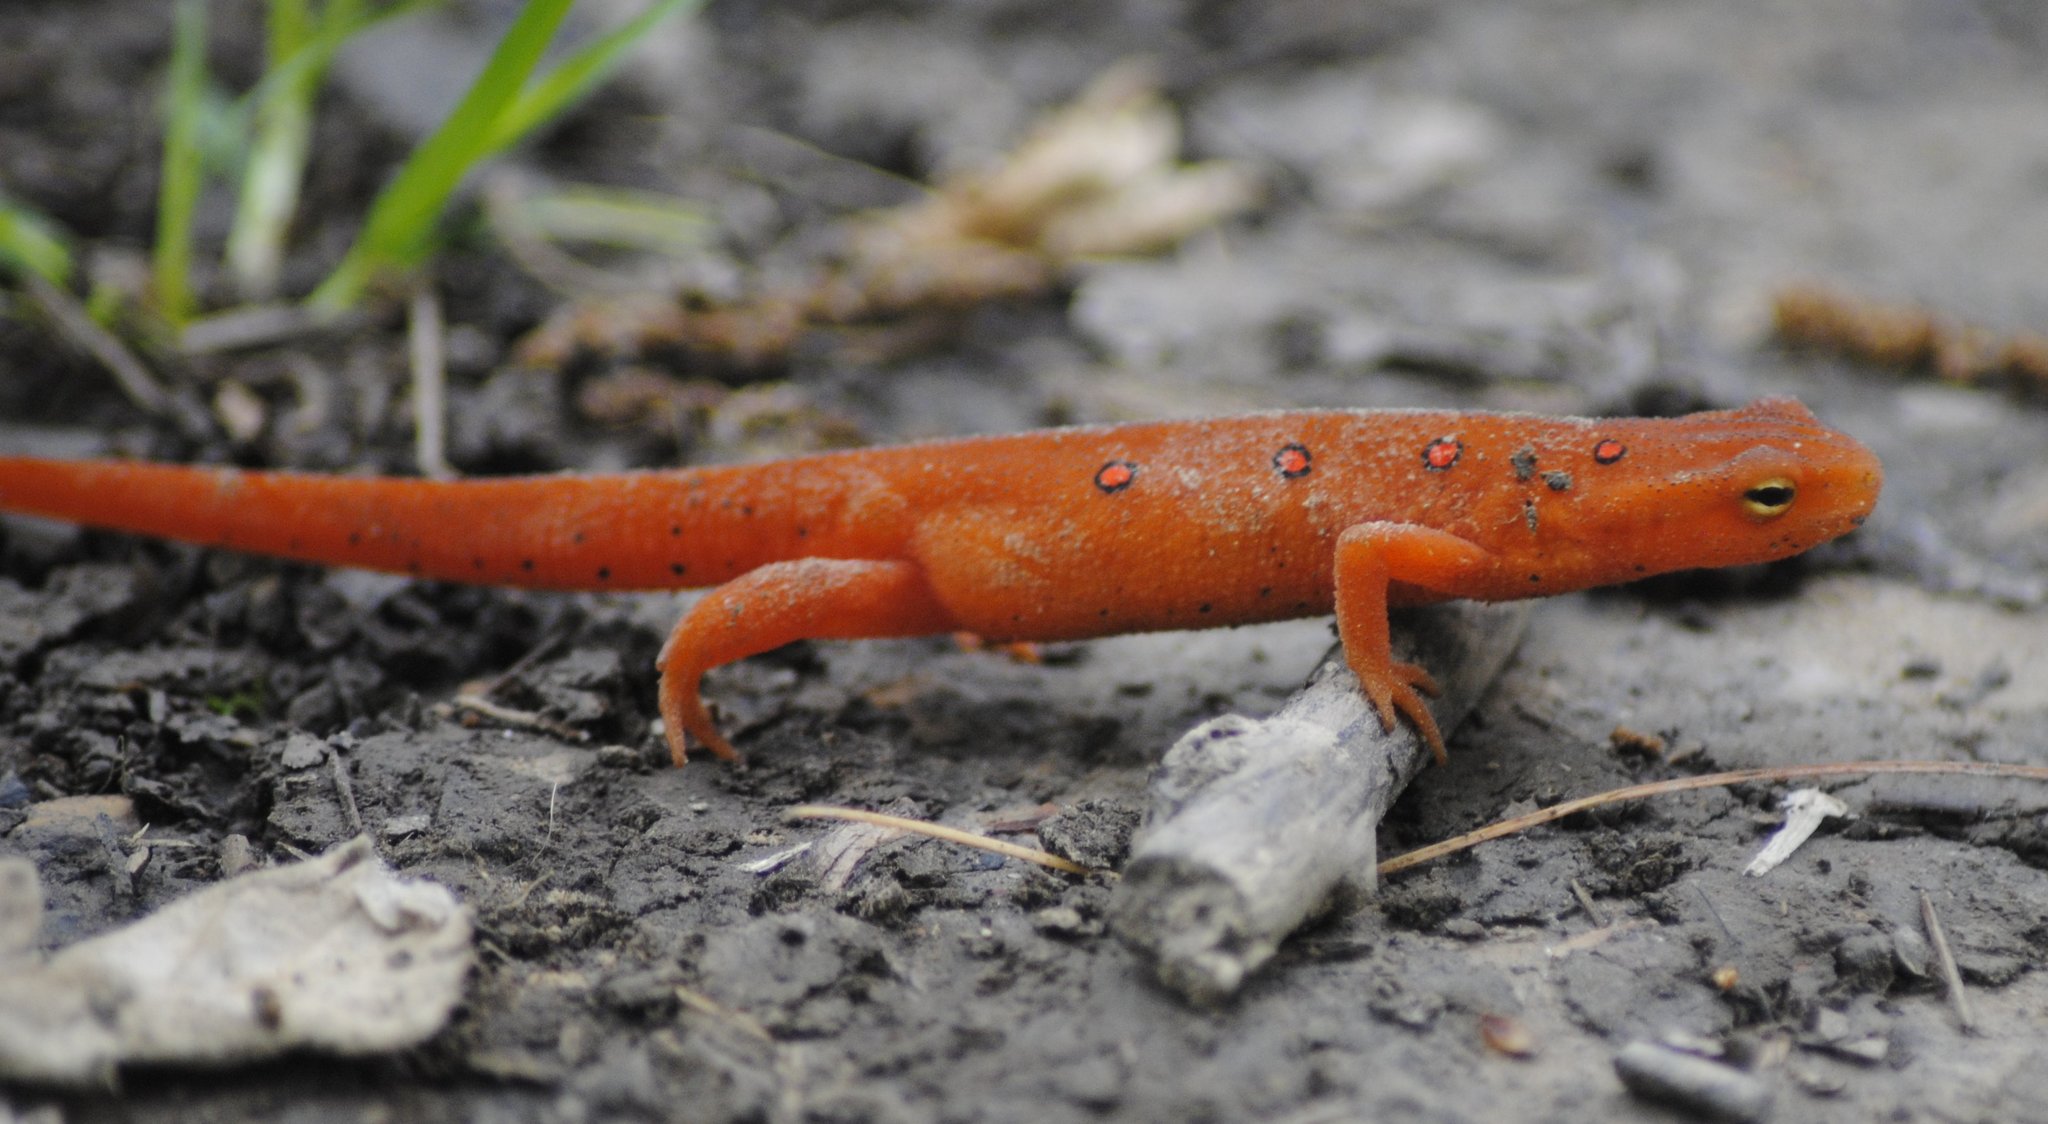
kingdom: Animalia
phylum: Chordata
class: Amphibia
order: Caudata
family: Salamandridae
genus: Notophthalmus
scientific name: Notophthalmus viridescens
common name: Eastern newt
